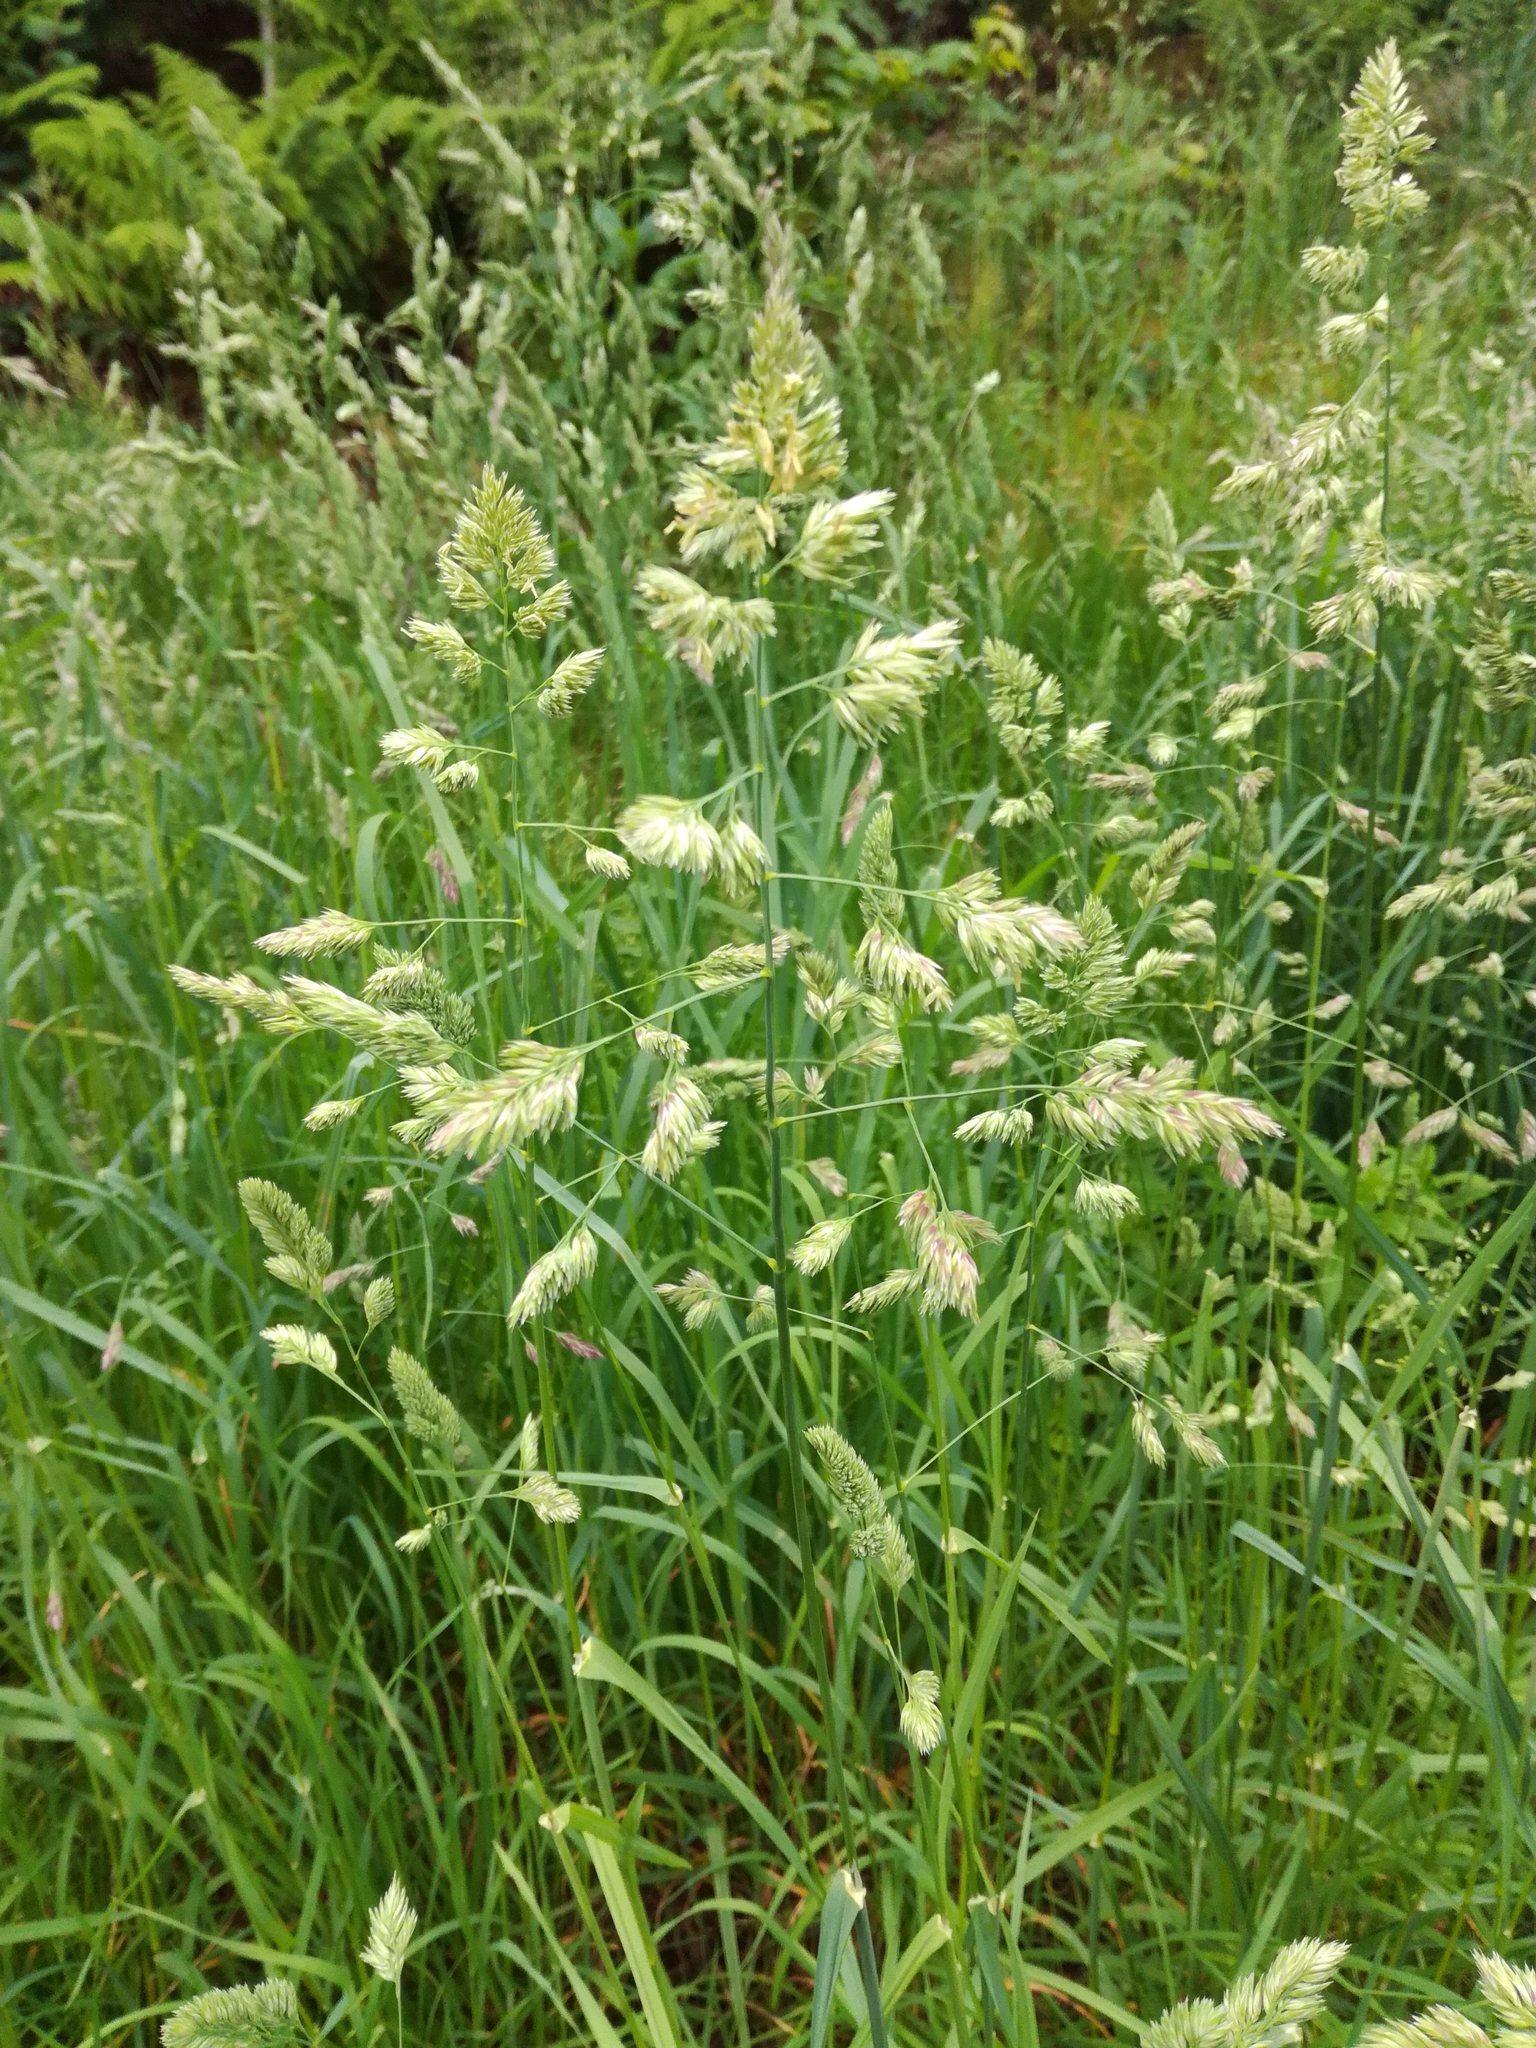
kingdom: Plantae
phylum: Tracheophyta
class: Liliopsida
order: Poales
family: Poaceae
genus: Dactylis
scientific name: Dactylis glomerata
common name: Orchardgrass
